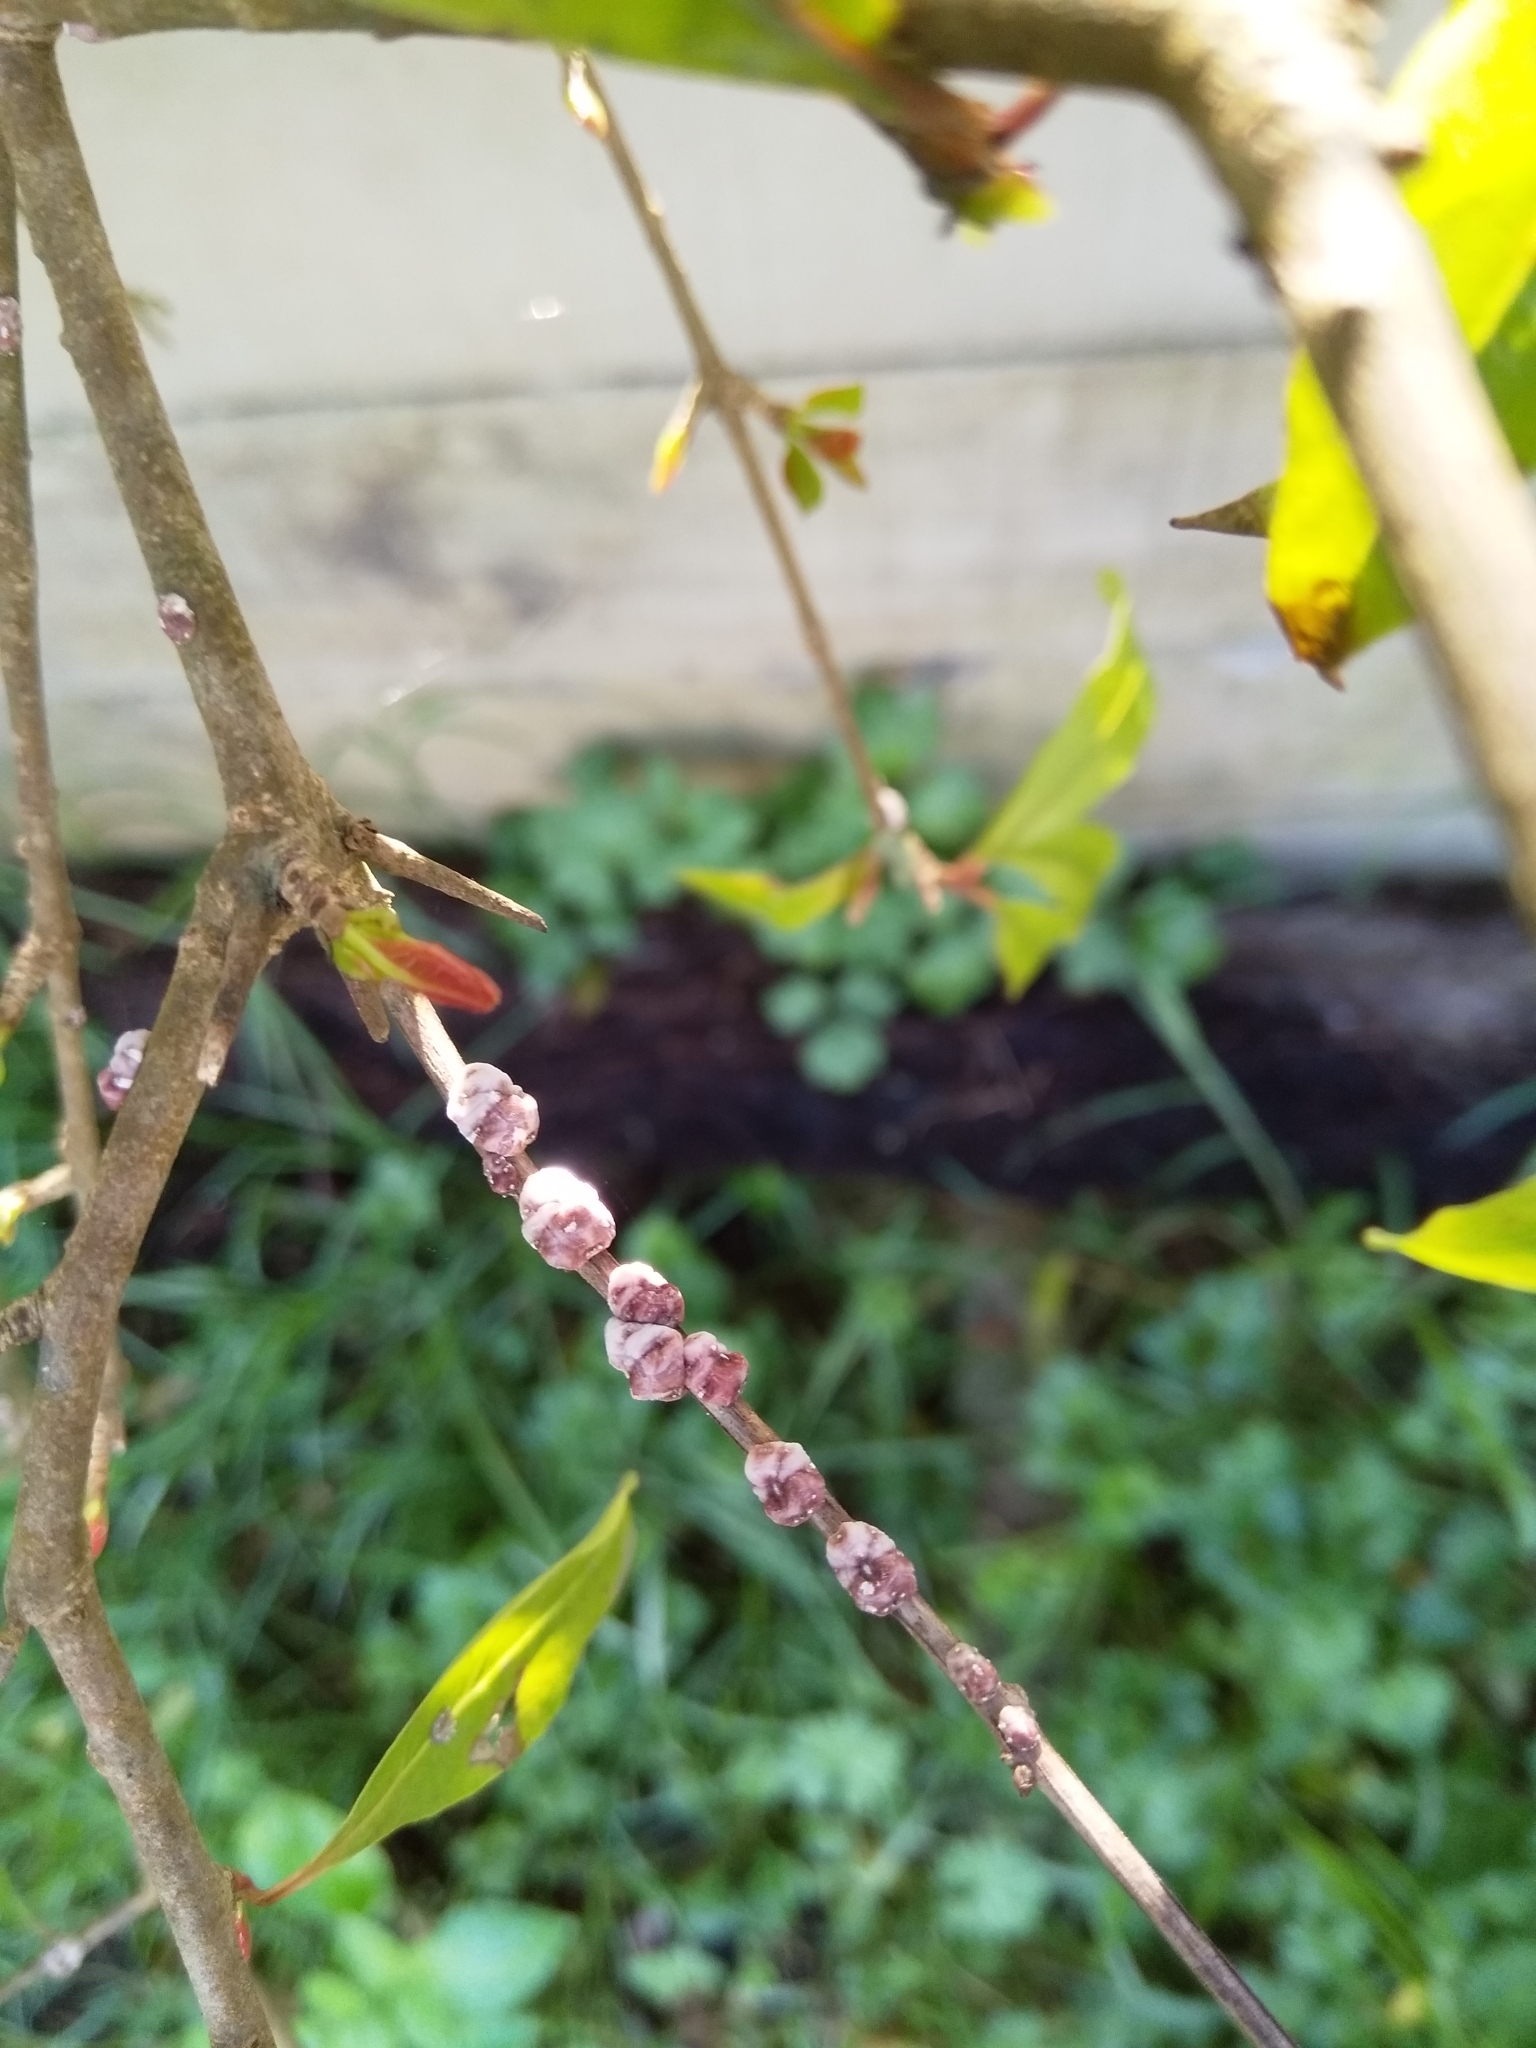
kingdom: Animalia
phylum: Arthropoda
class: Insecta
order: Hemiptera
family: Coccidae
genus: Ceroplastes
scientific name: Ceroplastes sinensis
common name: Hard wax scale
